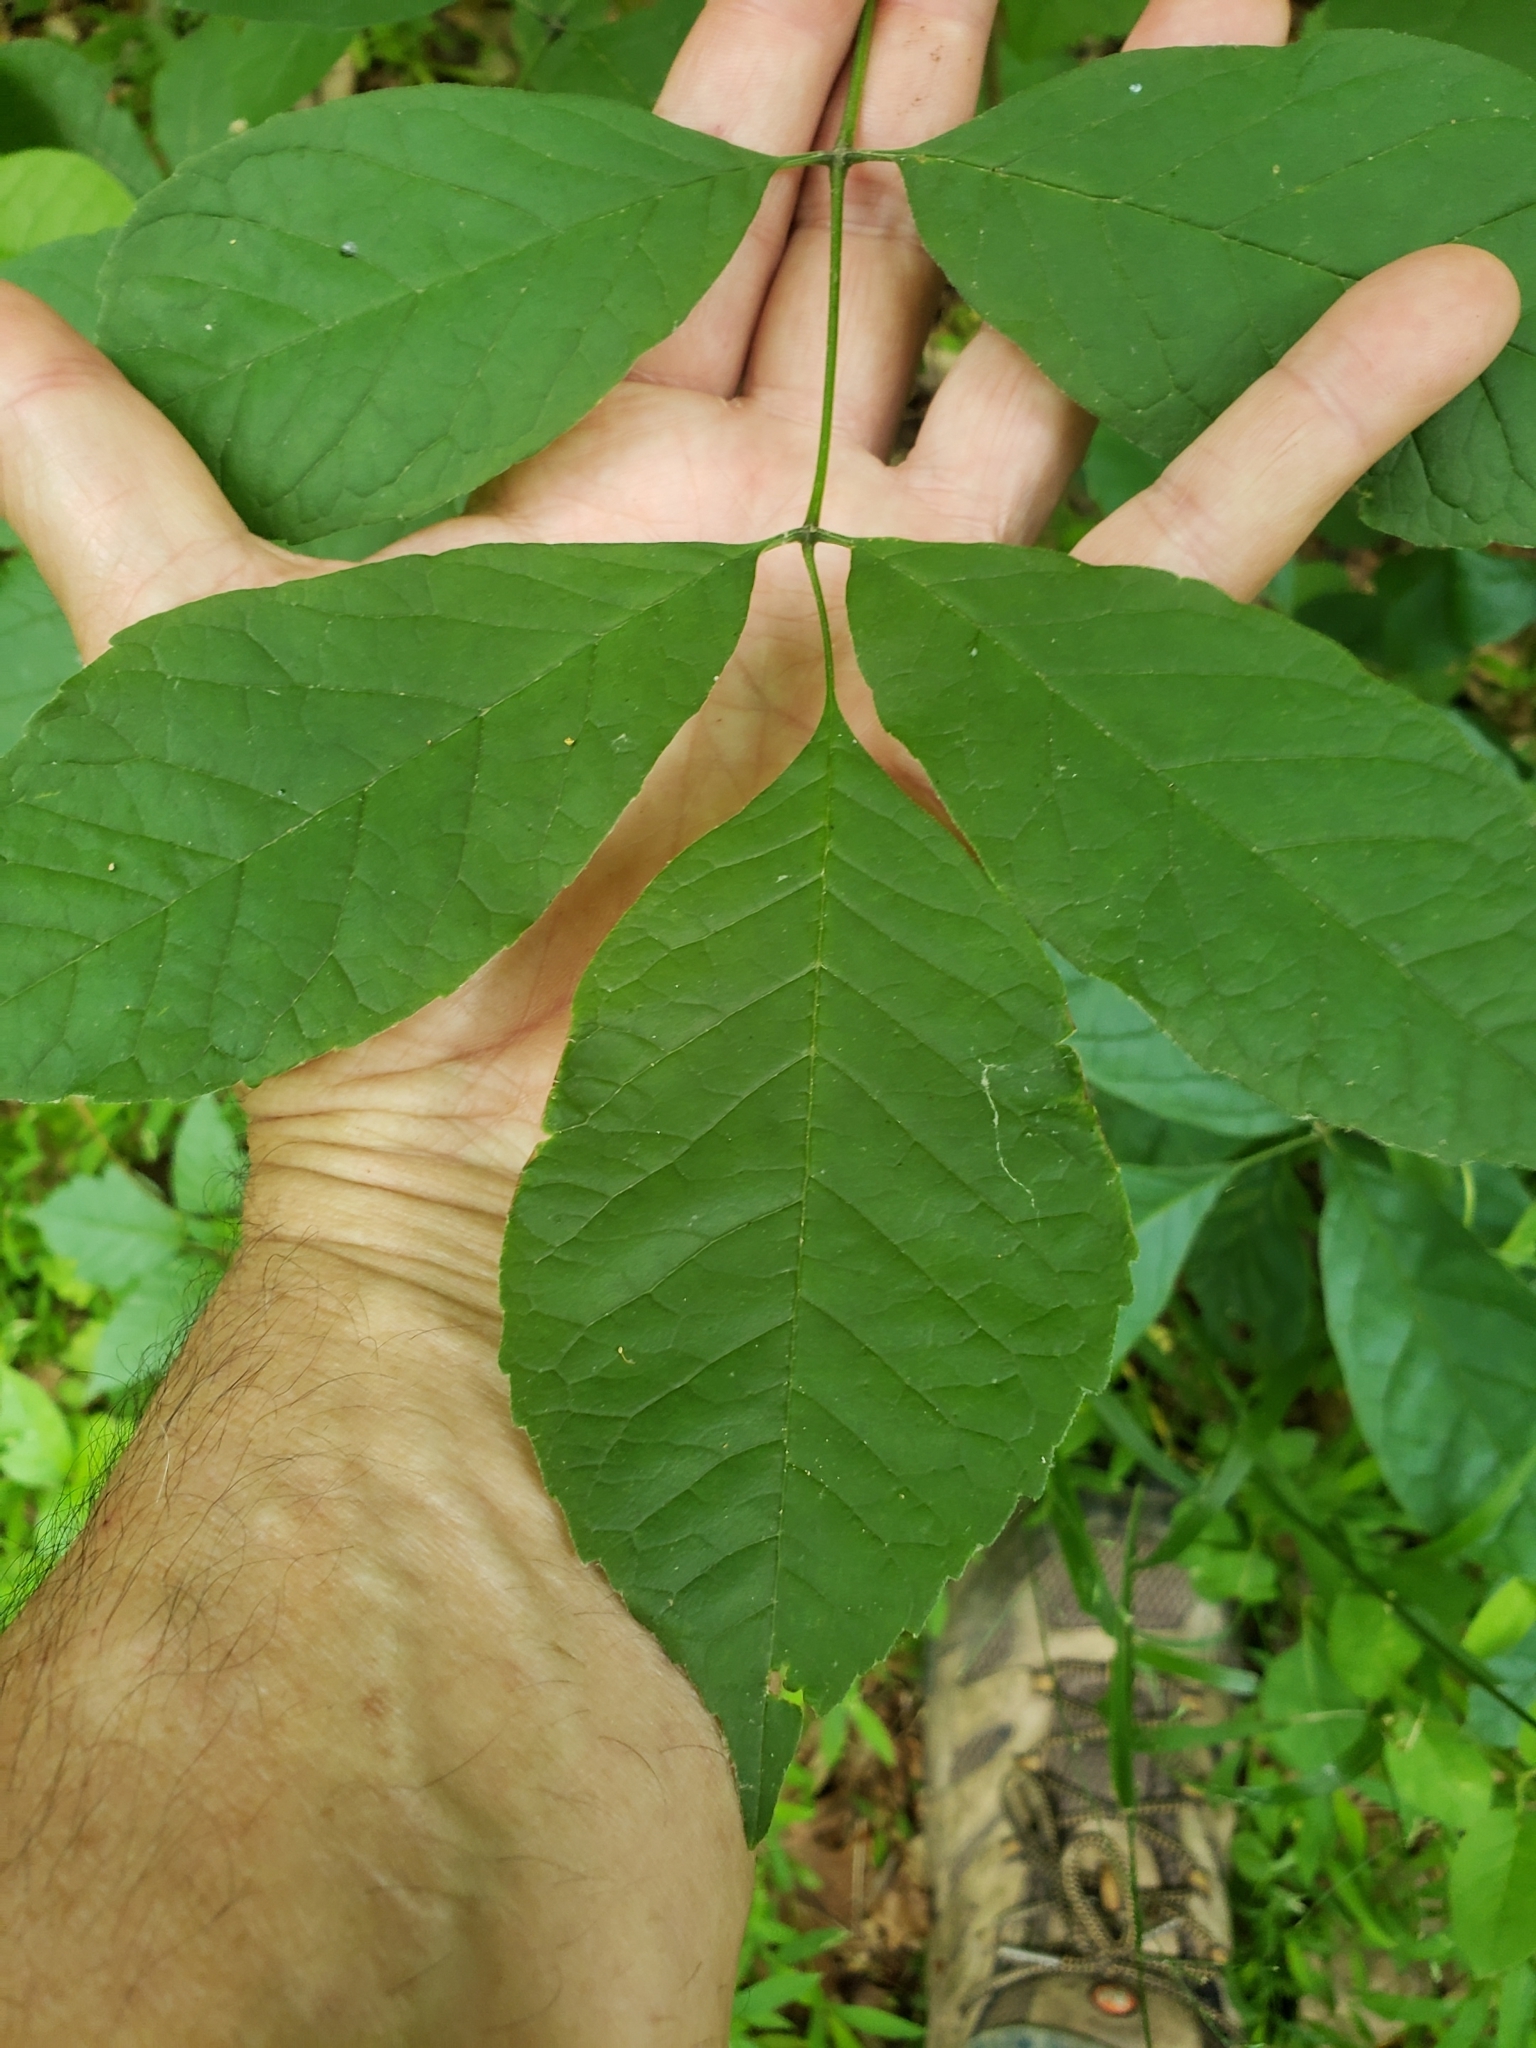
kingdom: Fungi
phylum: Basidiomycota
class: Pucciniomycetes
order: Pucciniales
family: Pucciniaceae
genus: Puccinia
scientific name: Puccinia sparganioidis
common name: Ash rust
